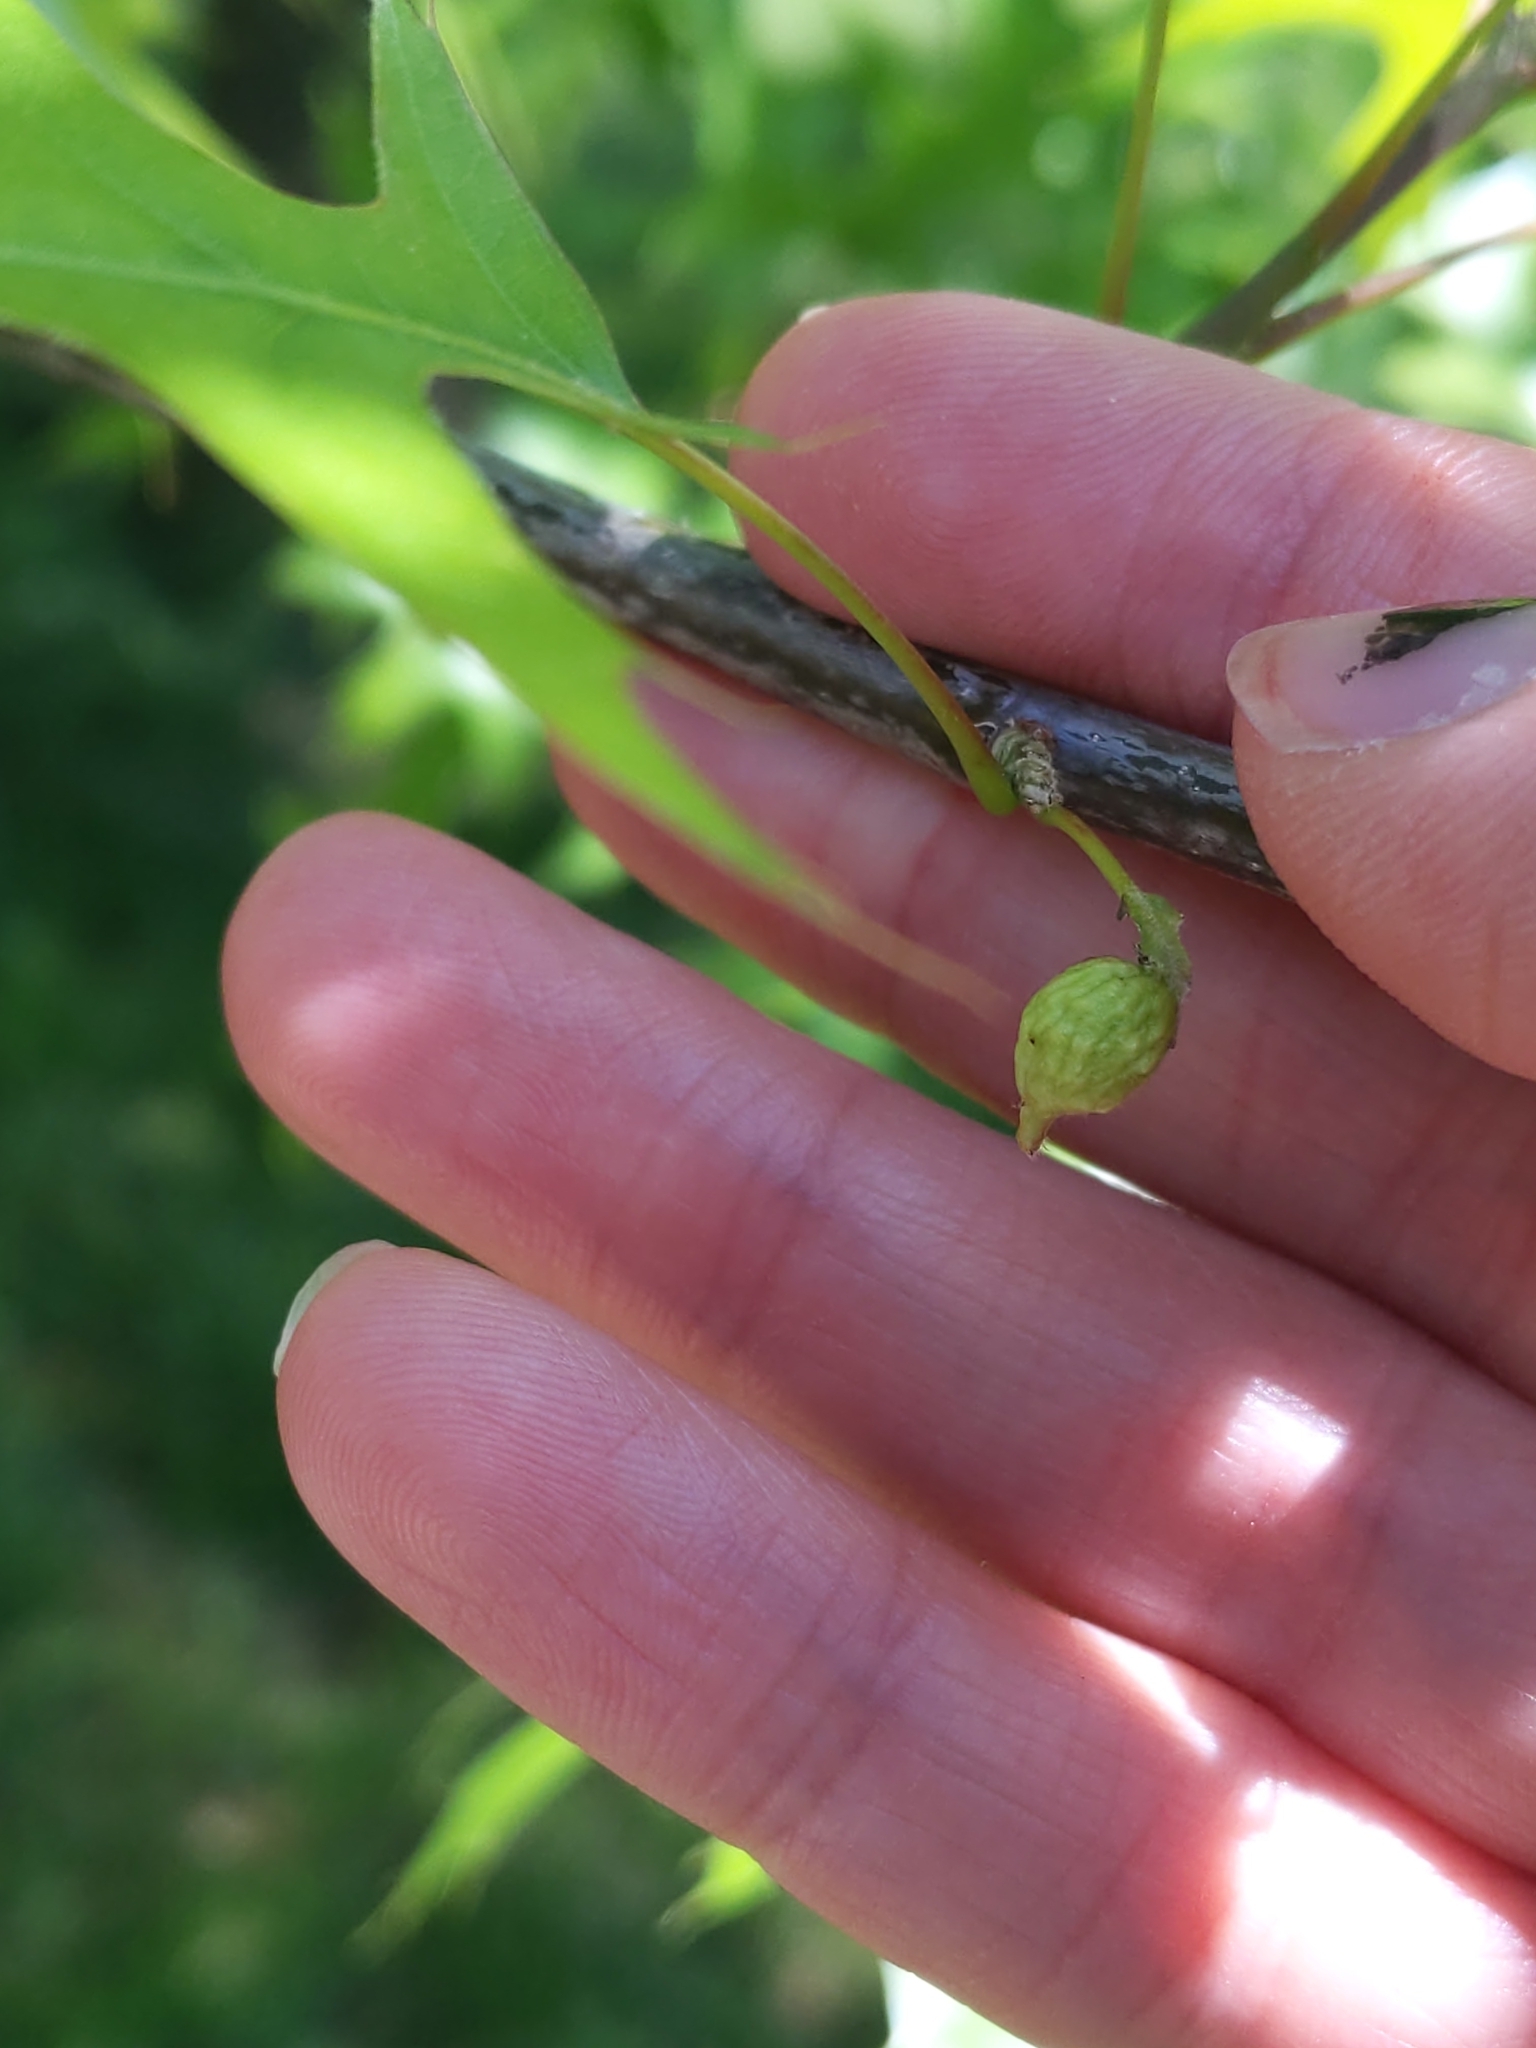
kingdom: Animalia
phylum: Arthropoda
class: Insecta
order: Hymenoptera
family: Cynipidae
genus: Dryocosmus
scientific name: Dryocosmus quercuspalustris
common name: Succulent oak gall wasp
